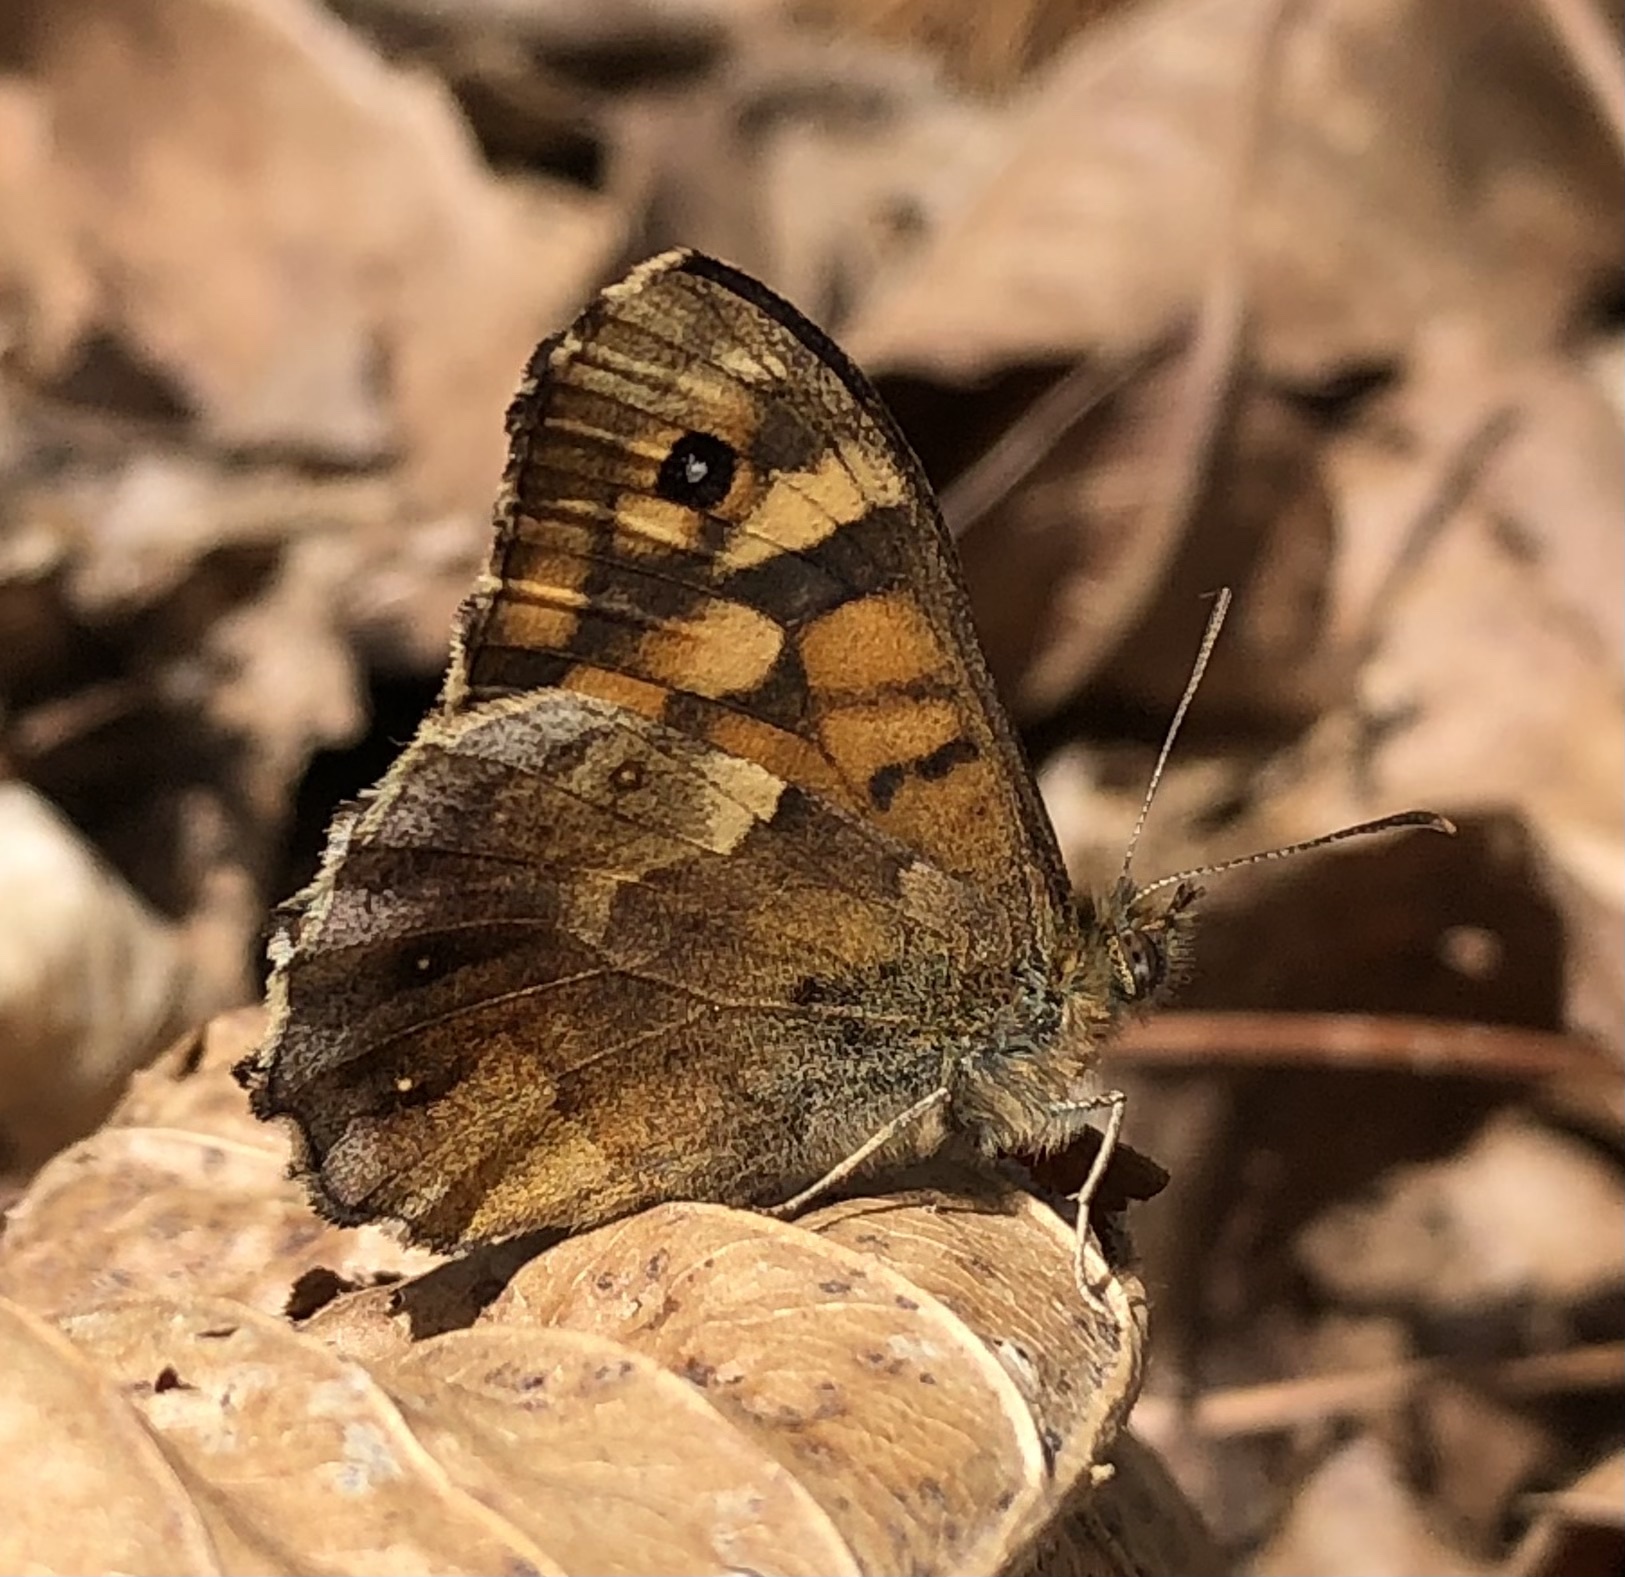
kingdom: Animalia
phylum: Arthropoda
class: Insecta
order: Lepidoptera
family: Nymphalidae
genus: Pararge
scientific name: Pararge aegeria
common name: Speckled wood
